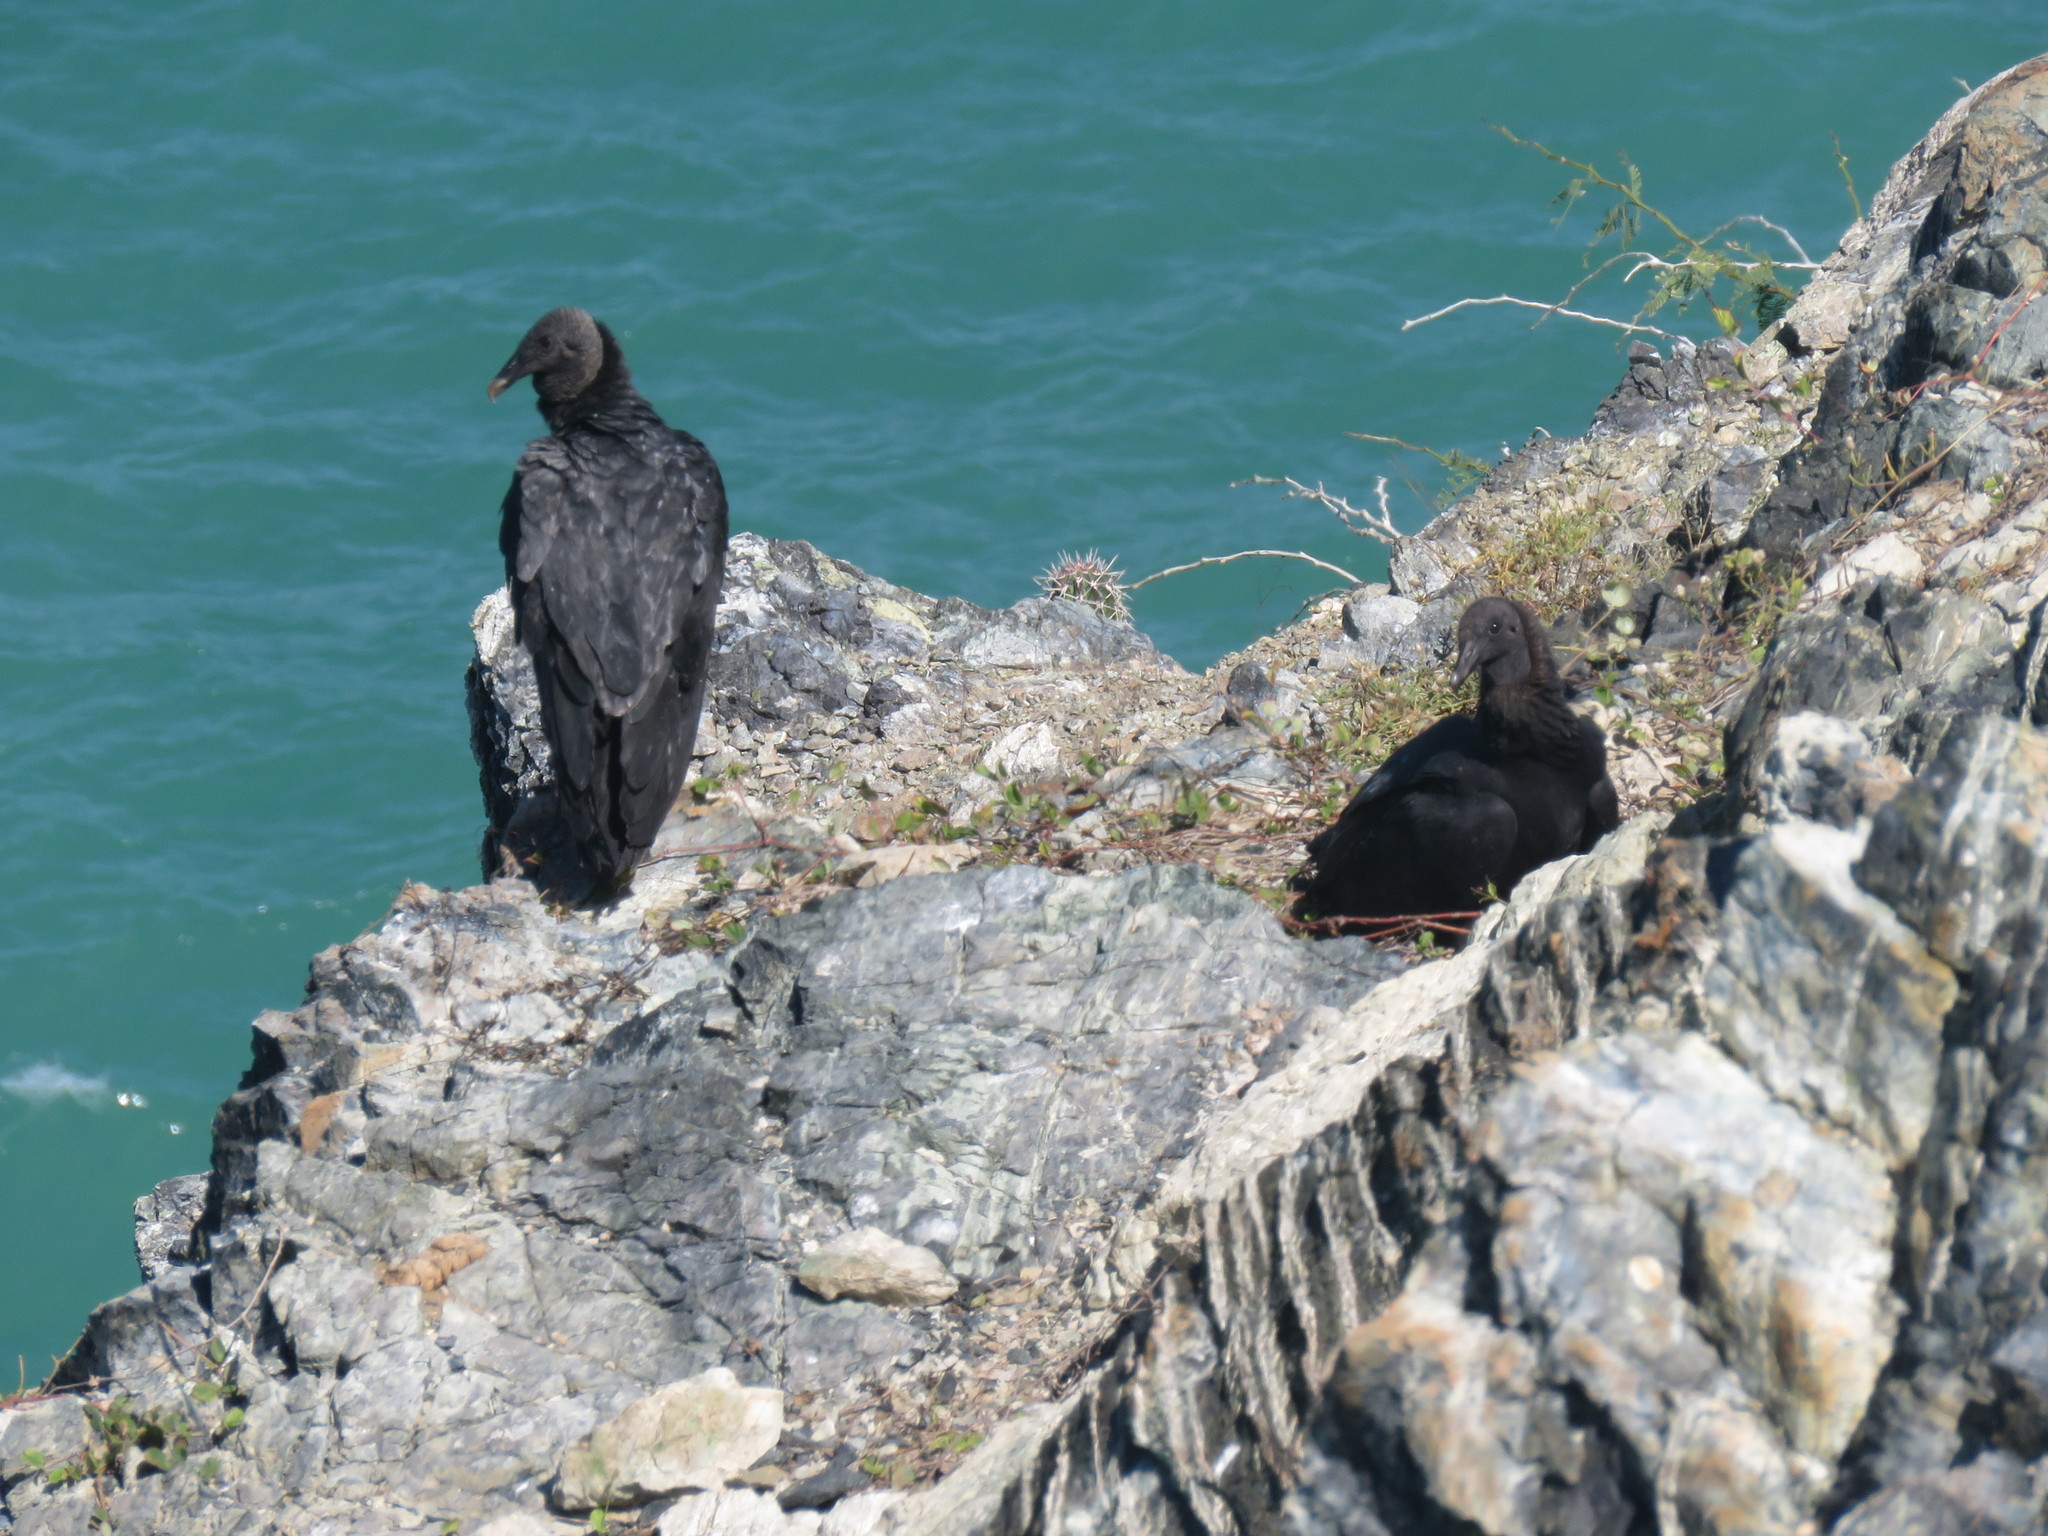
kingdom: Animalia
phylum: Chordata
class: Aves
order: Accipitriformes
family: Cathartidae
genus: Coragyps
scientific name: Coragyps atratus
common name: Black vulture
